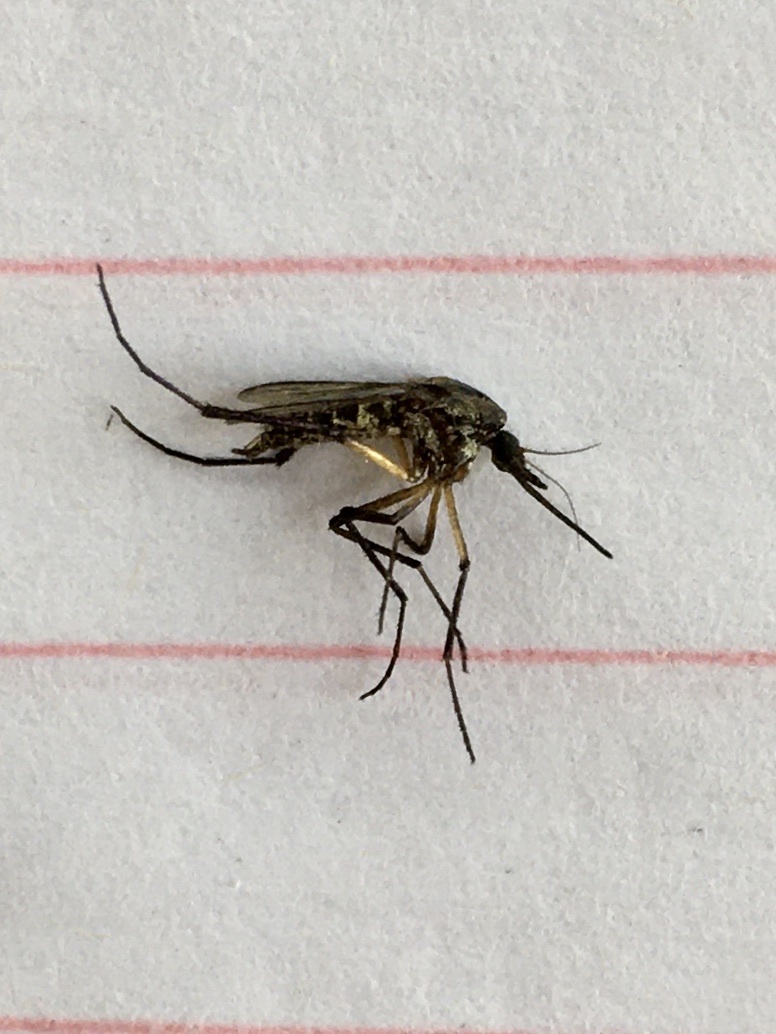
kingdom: Animalia
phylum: Arthropoda
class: Insecta
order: Diptera
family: Culicidae
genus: Psorophora
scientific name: Psorophora cyanescens
